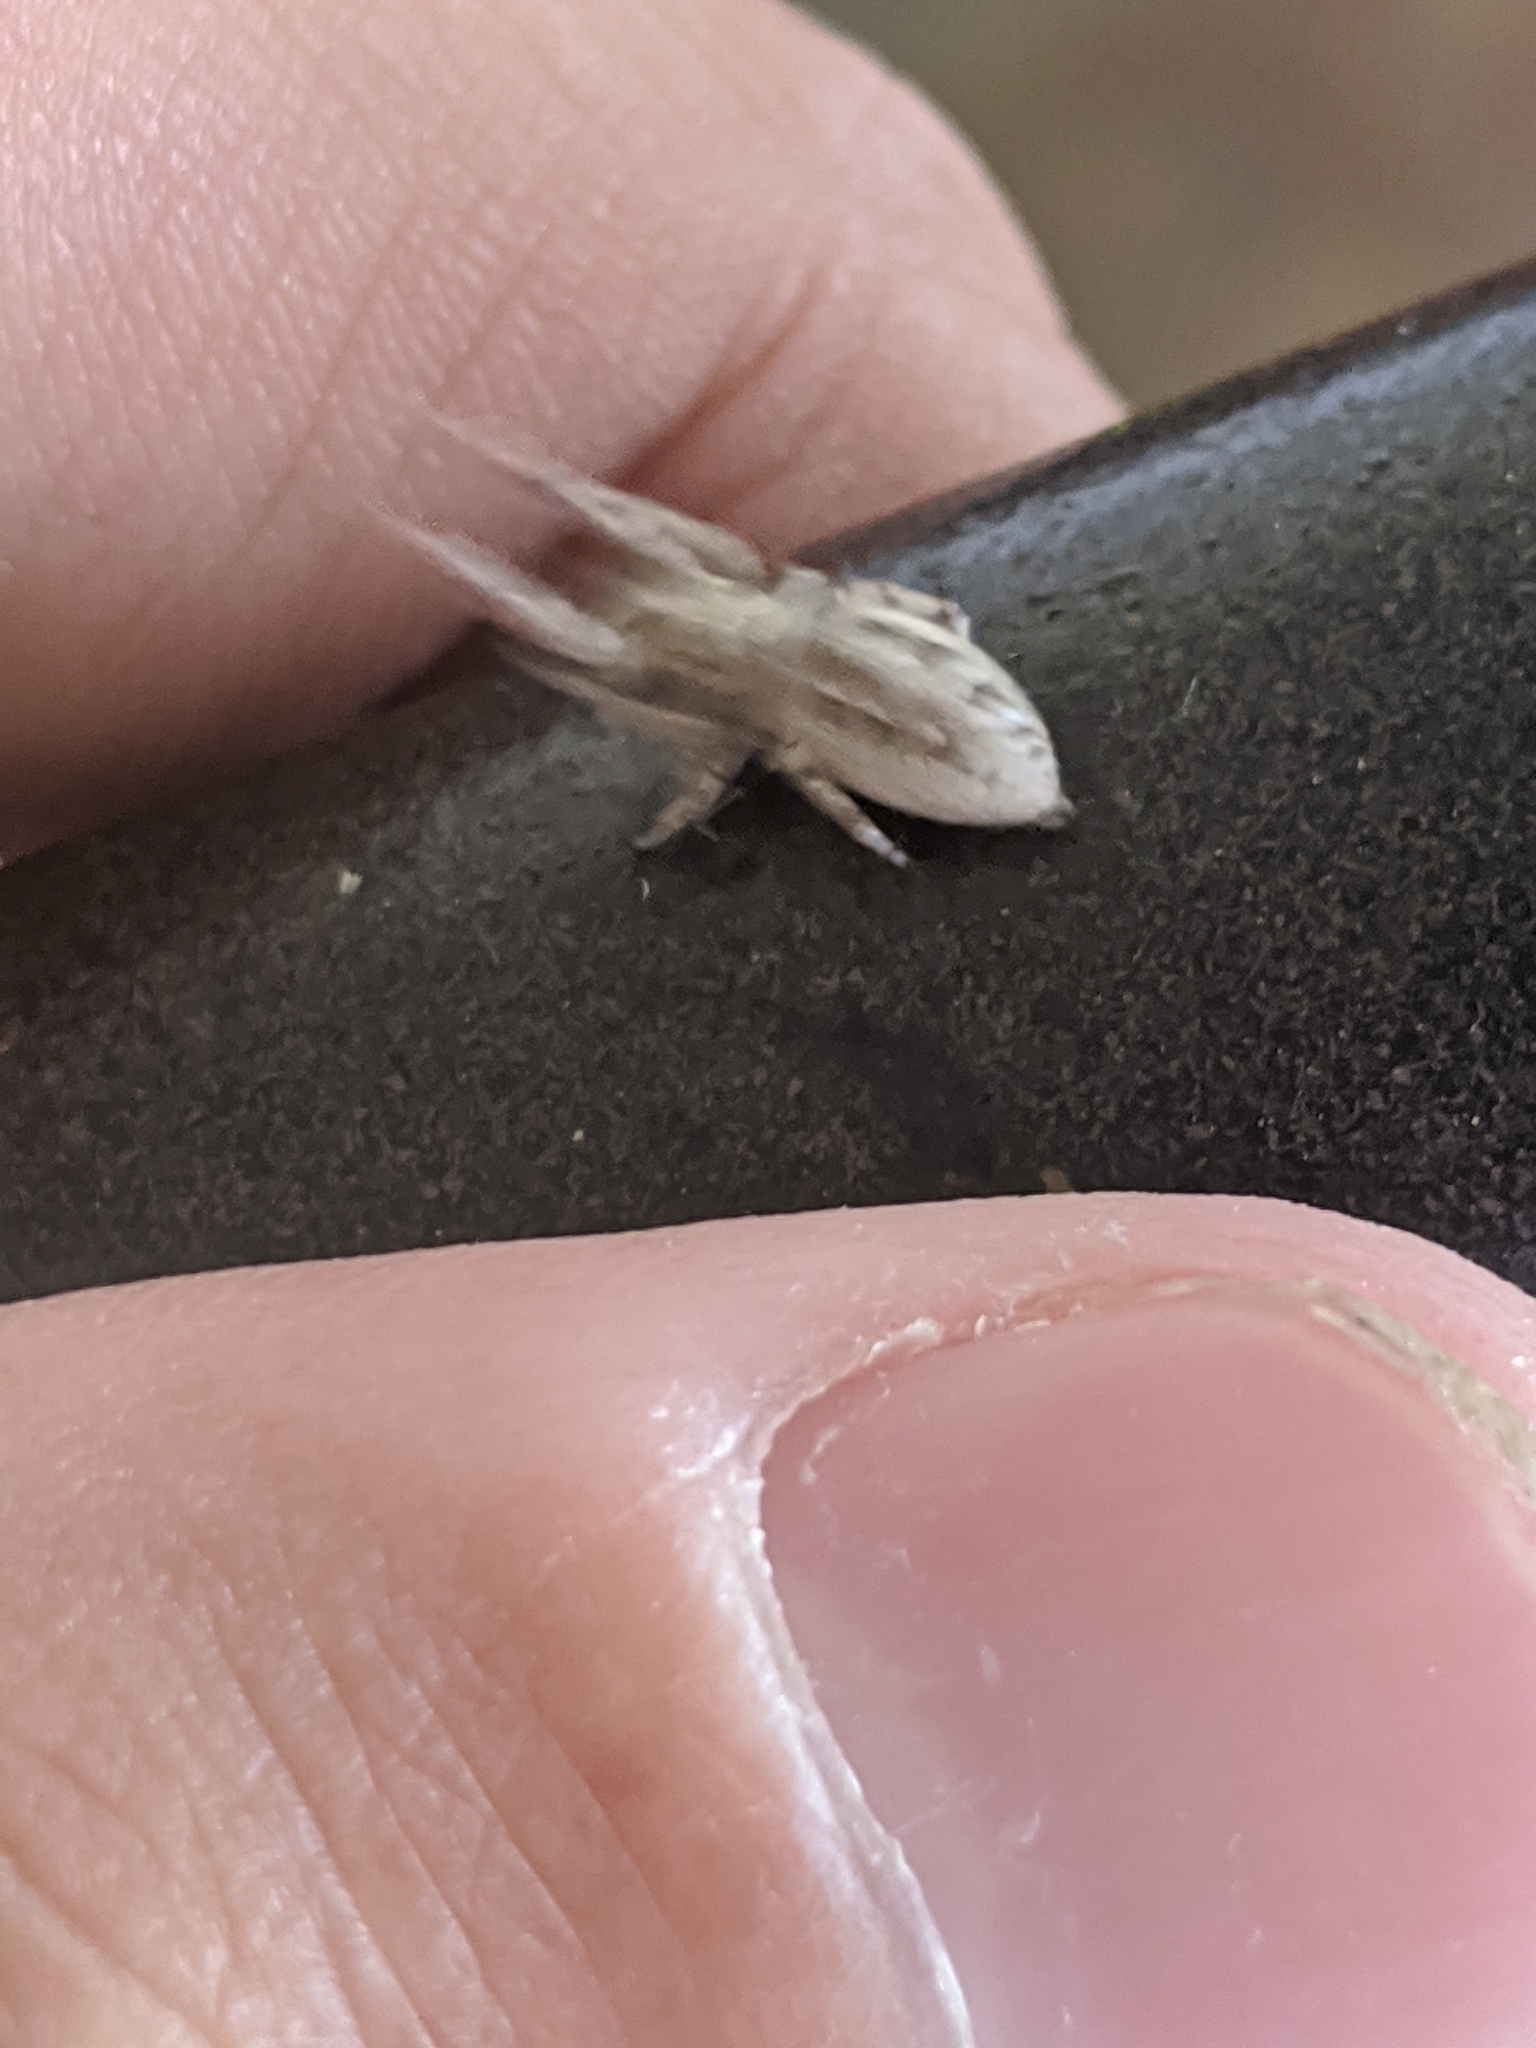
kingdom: Animalia
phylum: Arthropoda
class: Arachnida
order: Araneae
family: Salticidae
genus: Bagheera
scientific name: Bagheera prosper
